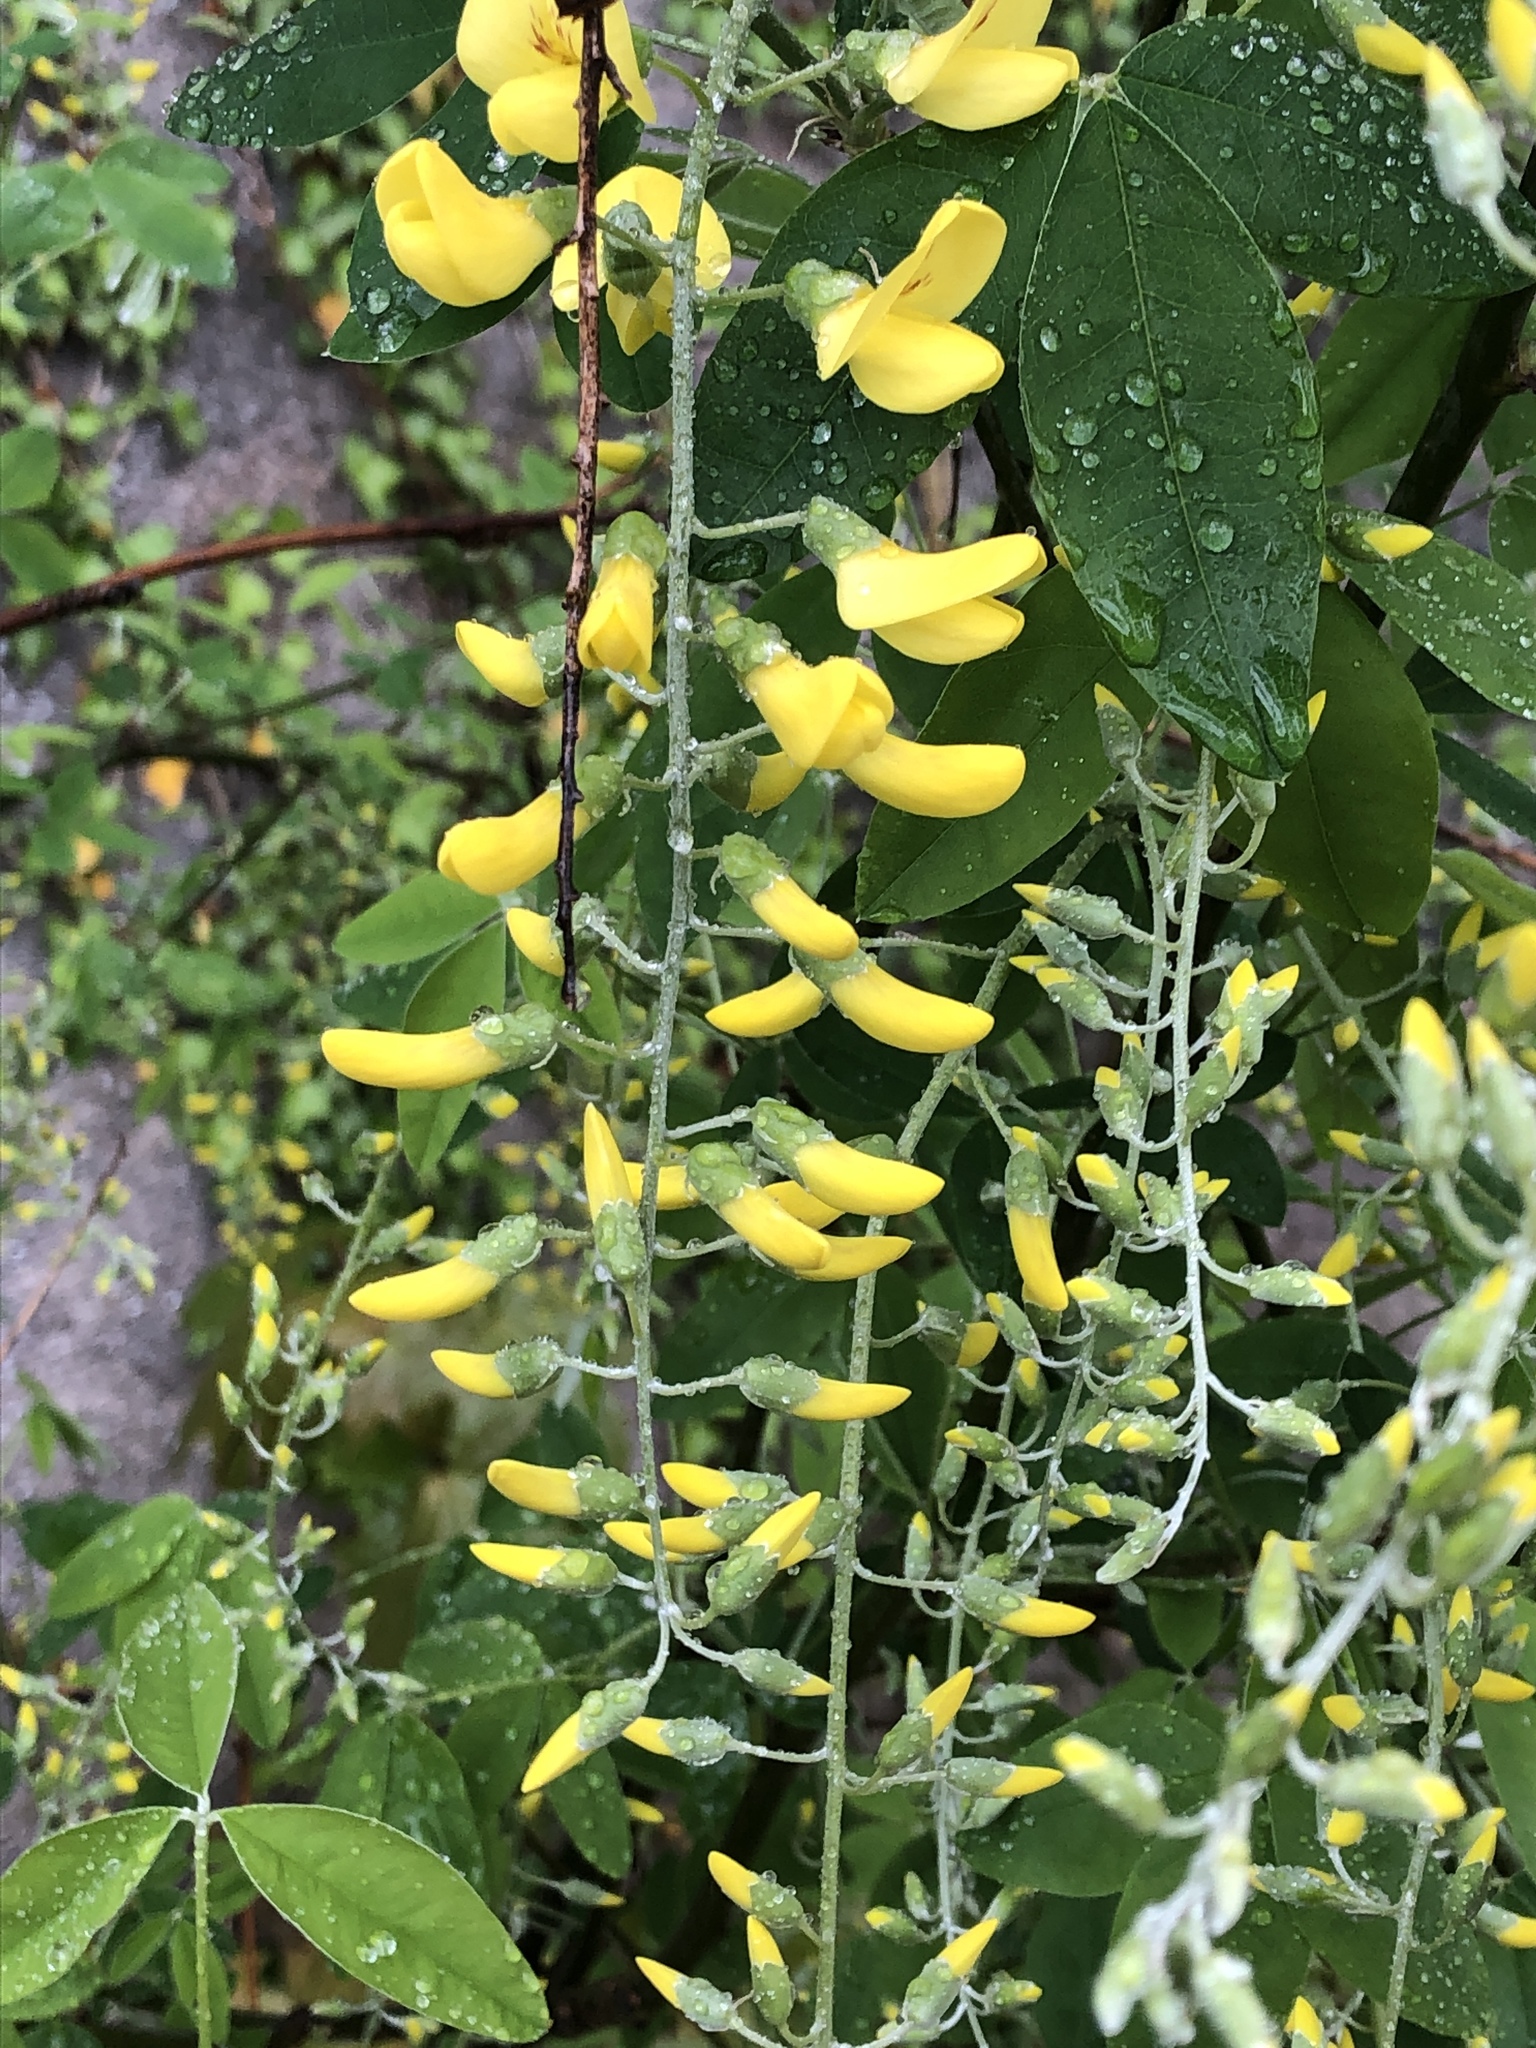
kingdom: Plantae
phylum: Tracheophyta
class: Magnoliopsida
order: Fabales
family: Fabaceae
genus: Laburnum
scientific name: Laburnum anagyroides
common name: Laburnum
